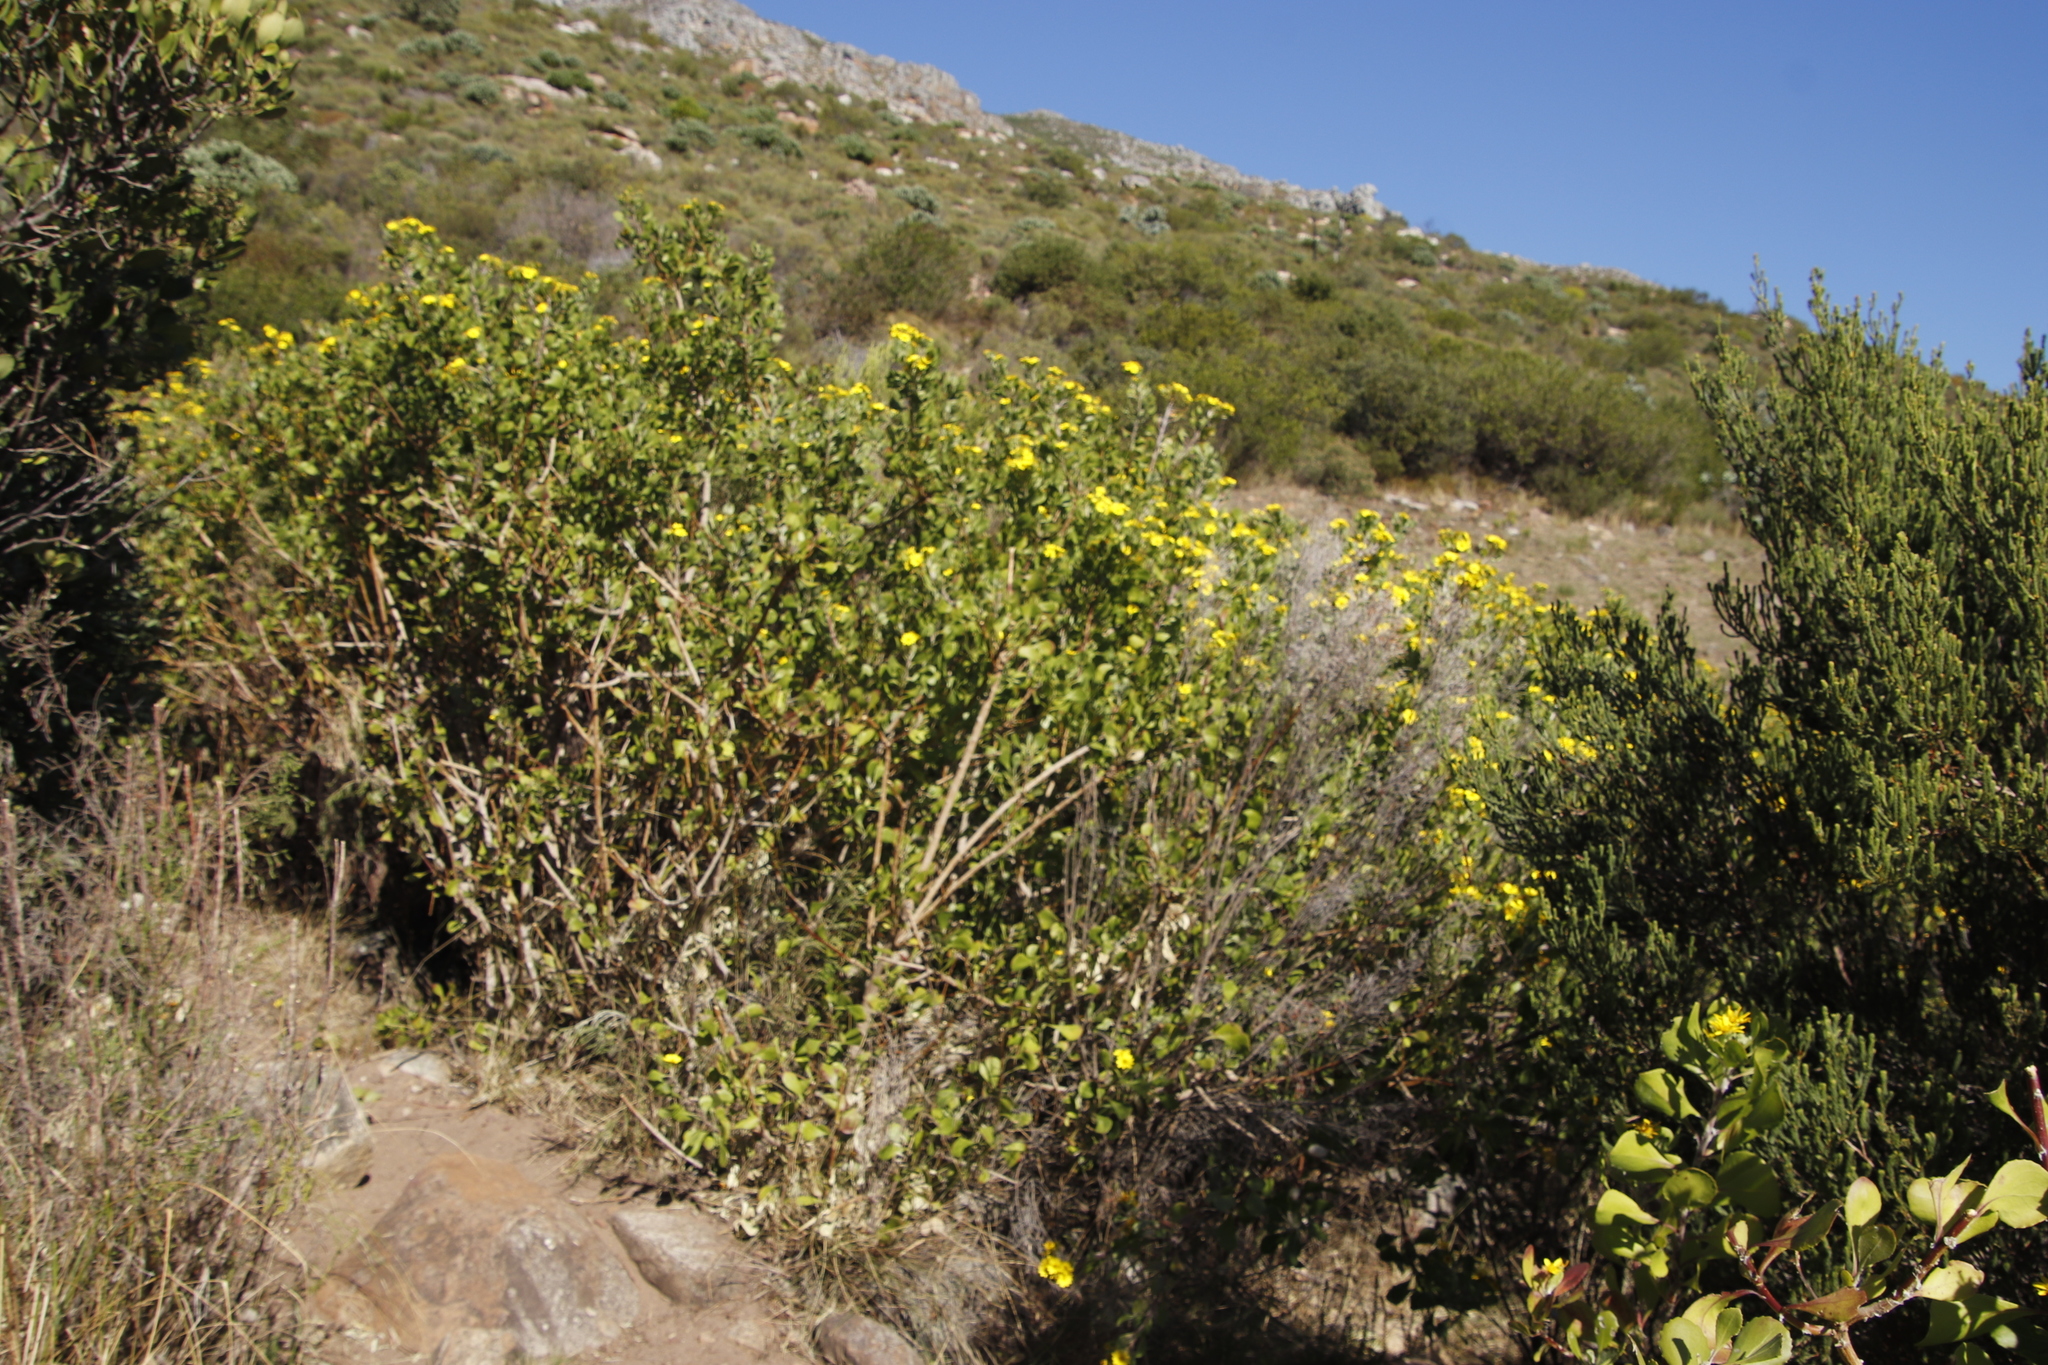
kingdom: Plantae
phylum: Tracheophyta
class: Magnoliopsida
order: Asterales
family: Asteraceae
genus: Osteospermum
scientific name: Osteospermum moniliferum
